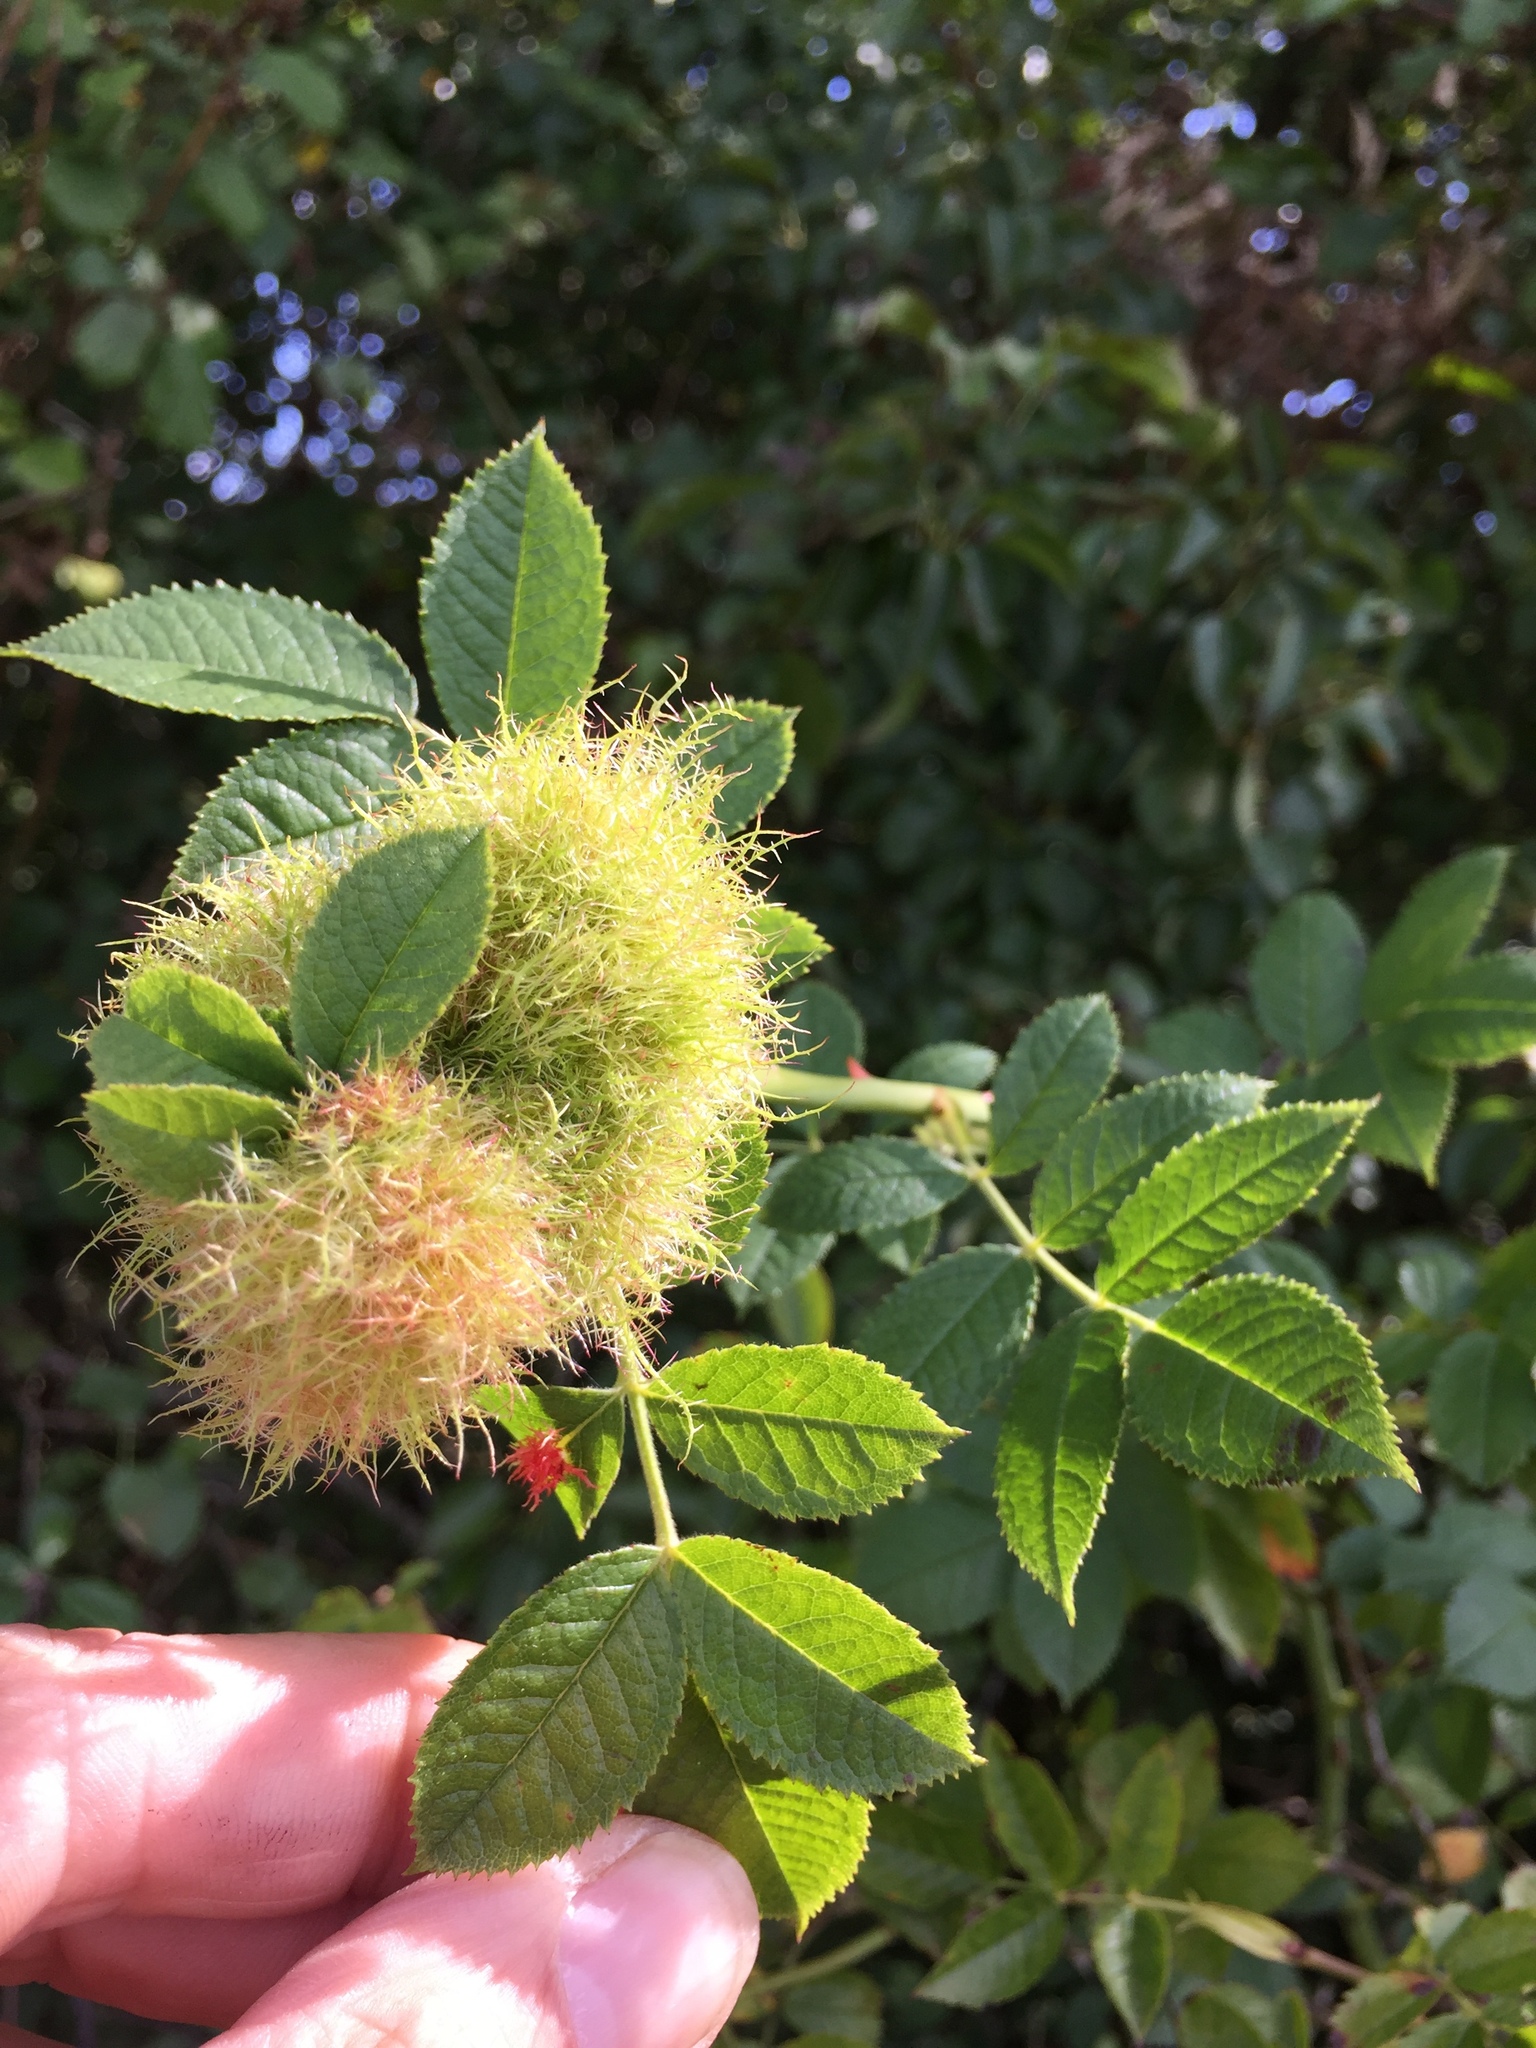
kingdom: Animalia
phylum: Arthropoda
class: Insecta
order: Hymenoptera
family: Cynipidae
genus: Diplolepis
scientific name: Diplolepis rosae
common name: Bedeguar gall
